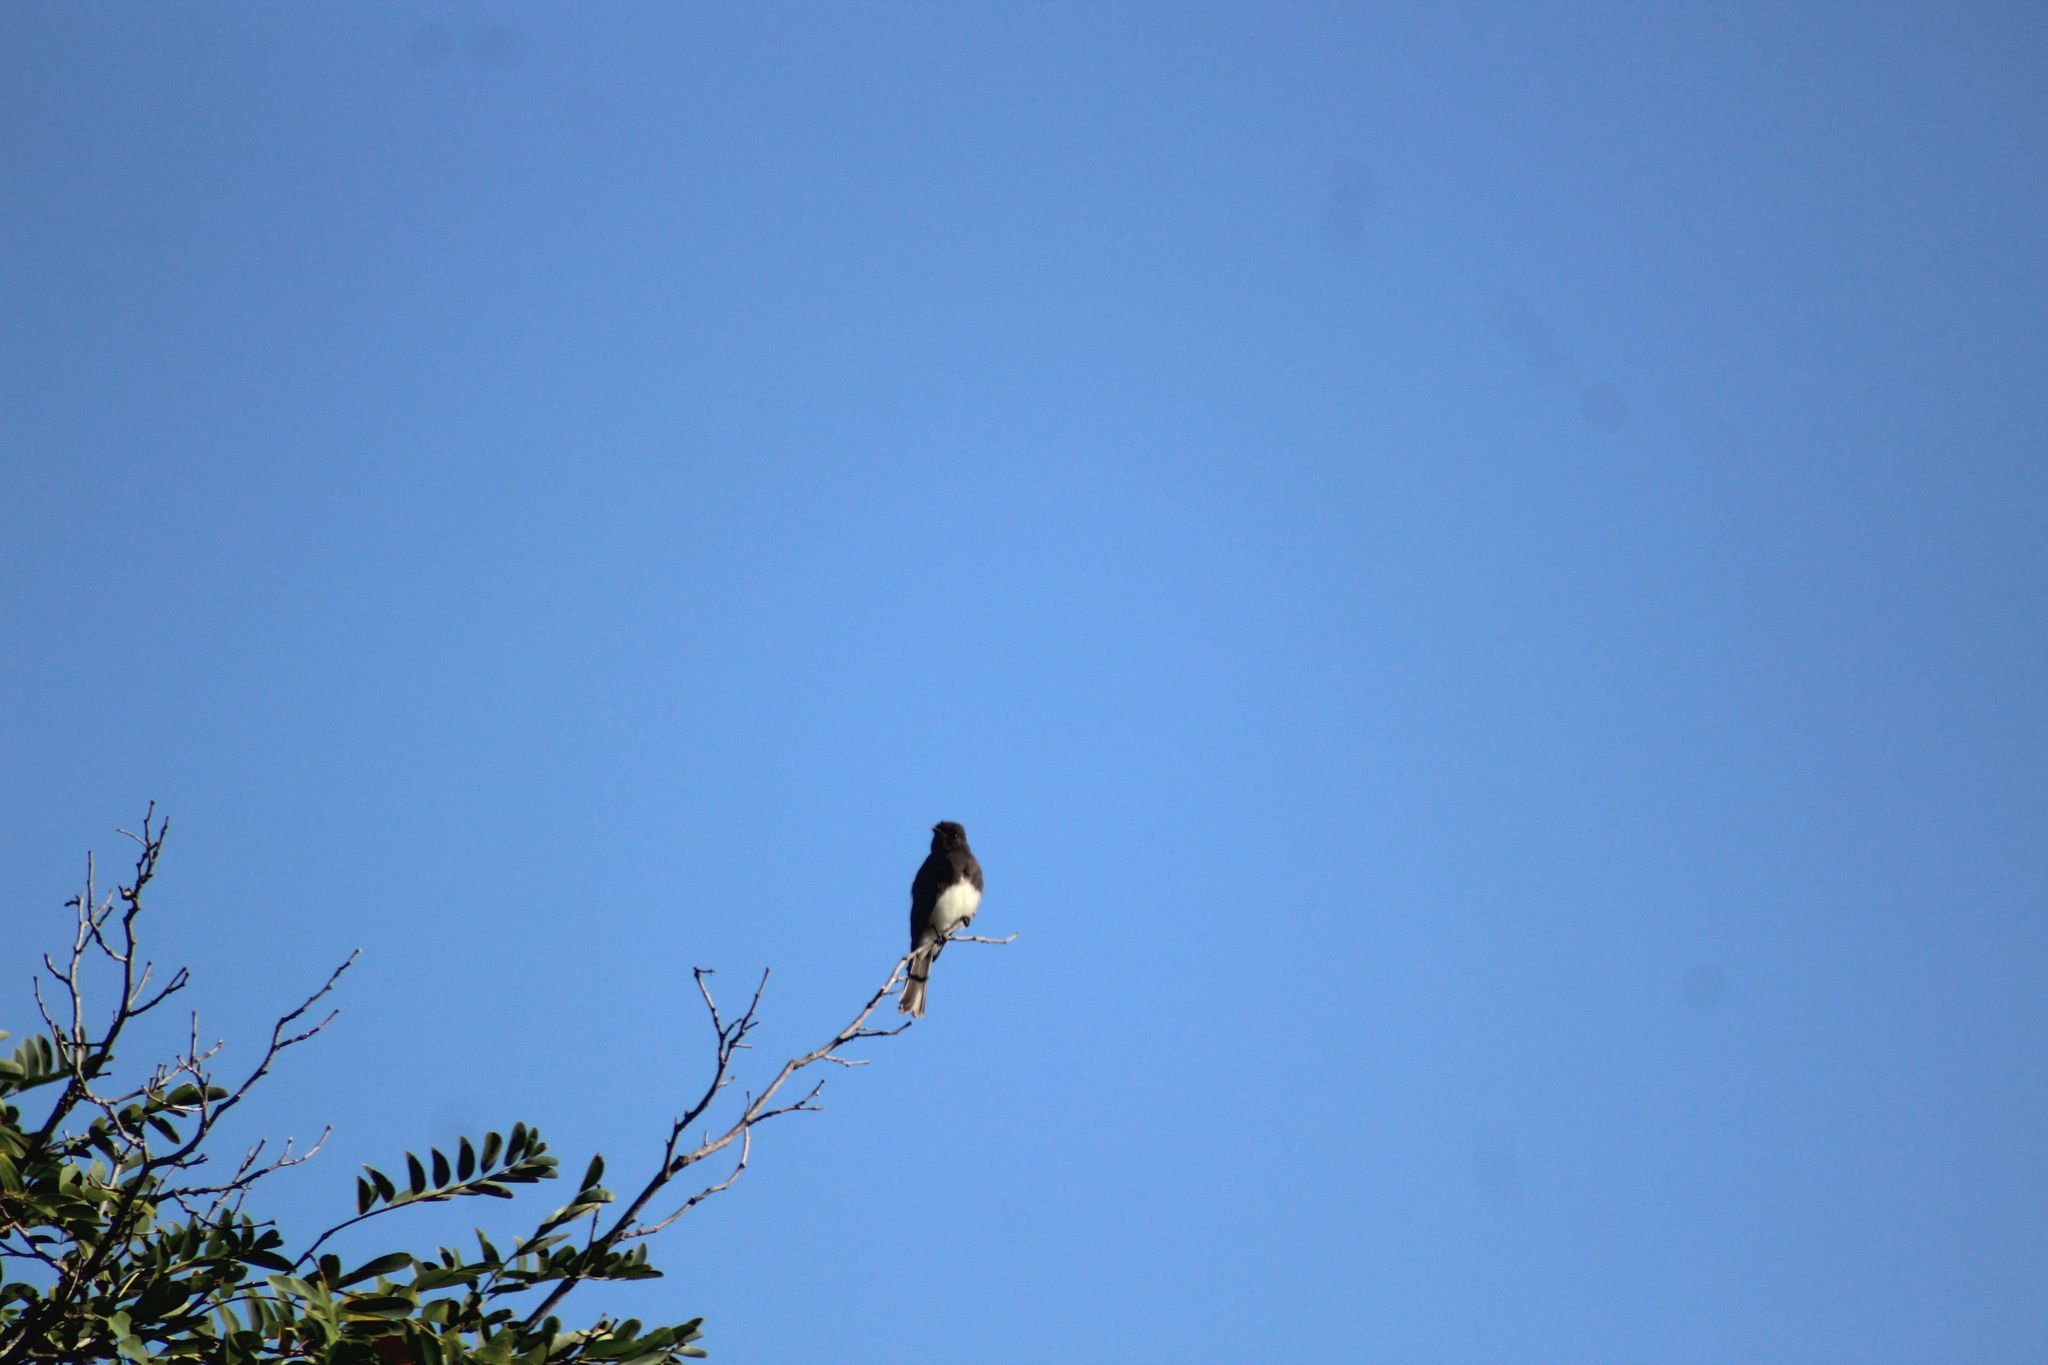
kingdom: Animalia
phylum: Chordata
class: Aves
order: Passeriformes
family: Tyrannidae
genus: Sayornis
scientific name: Sayornis nigricans
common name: Black phoebe
